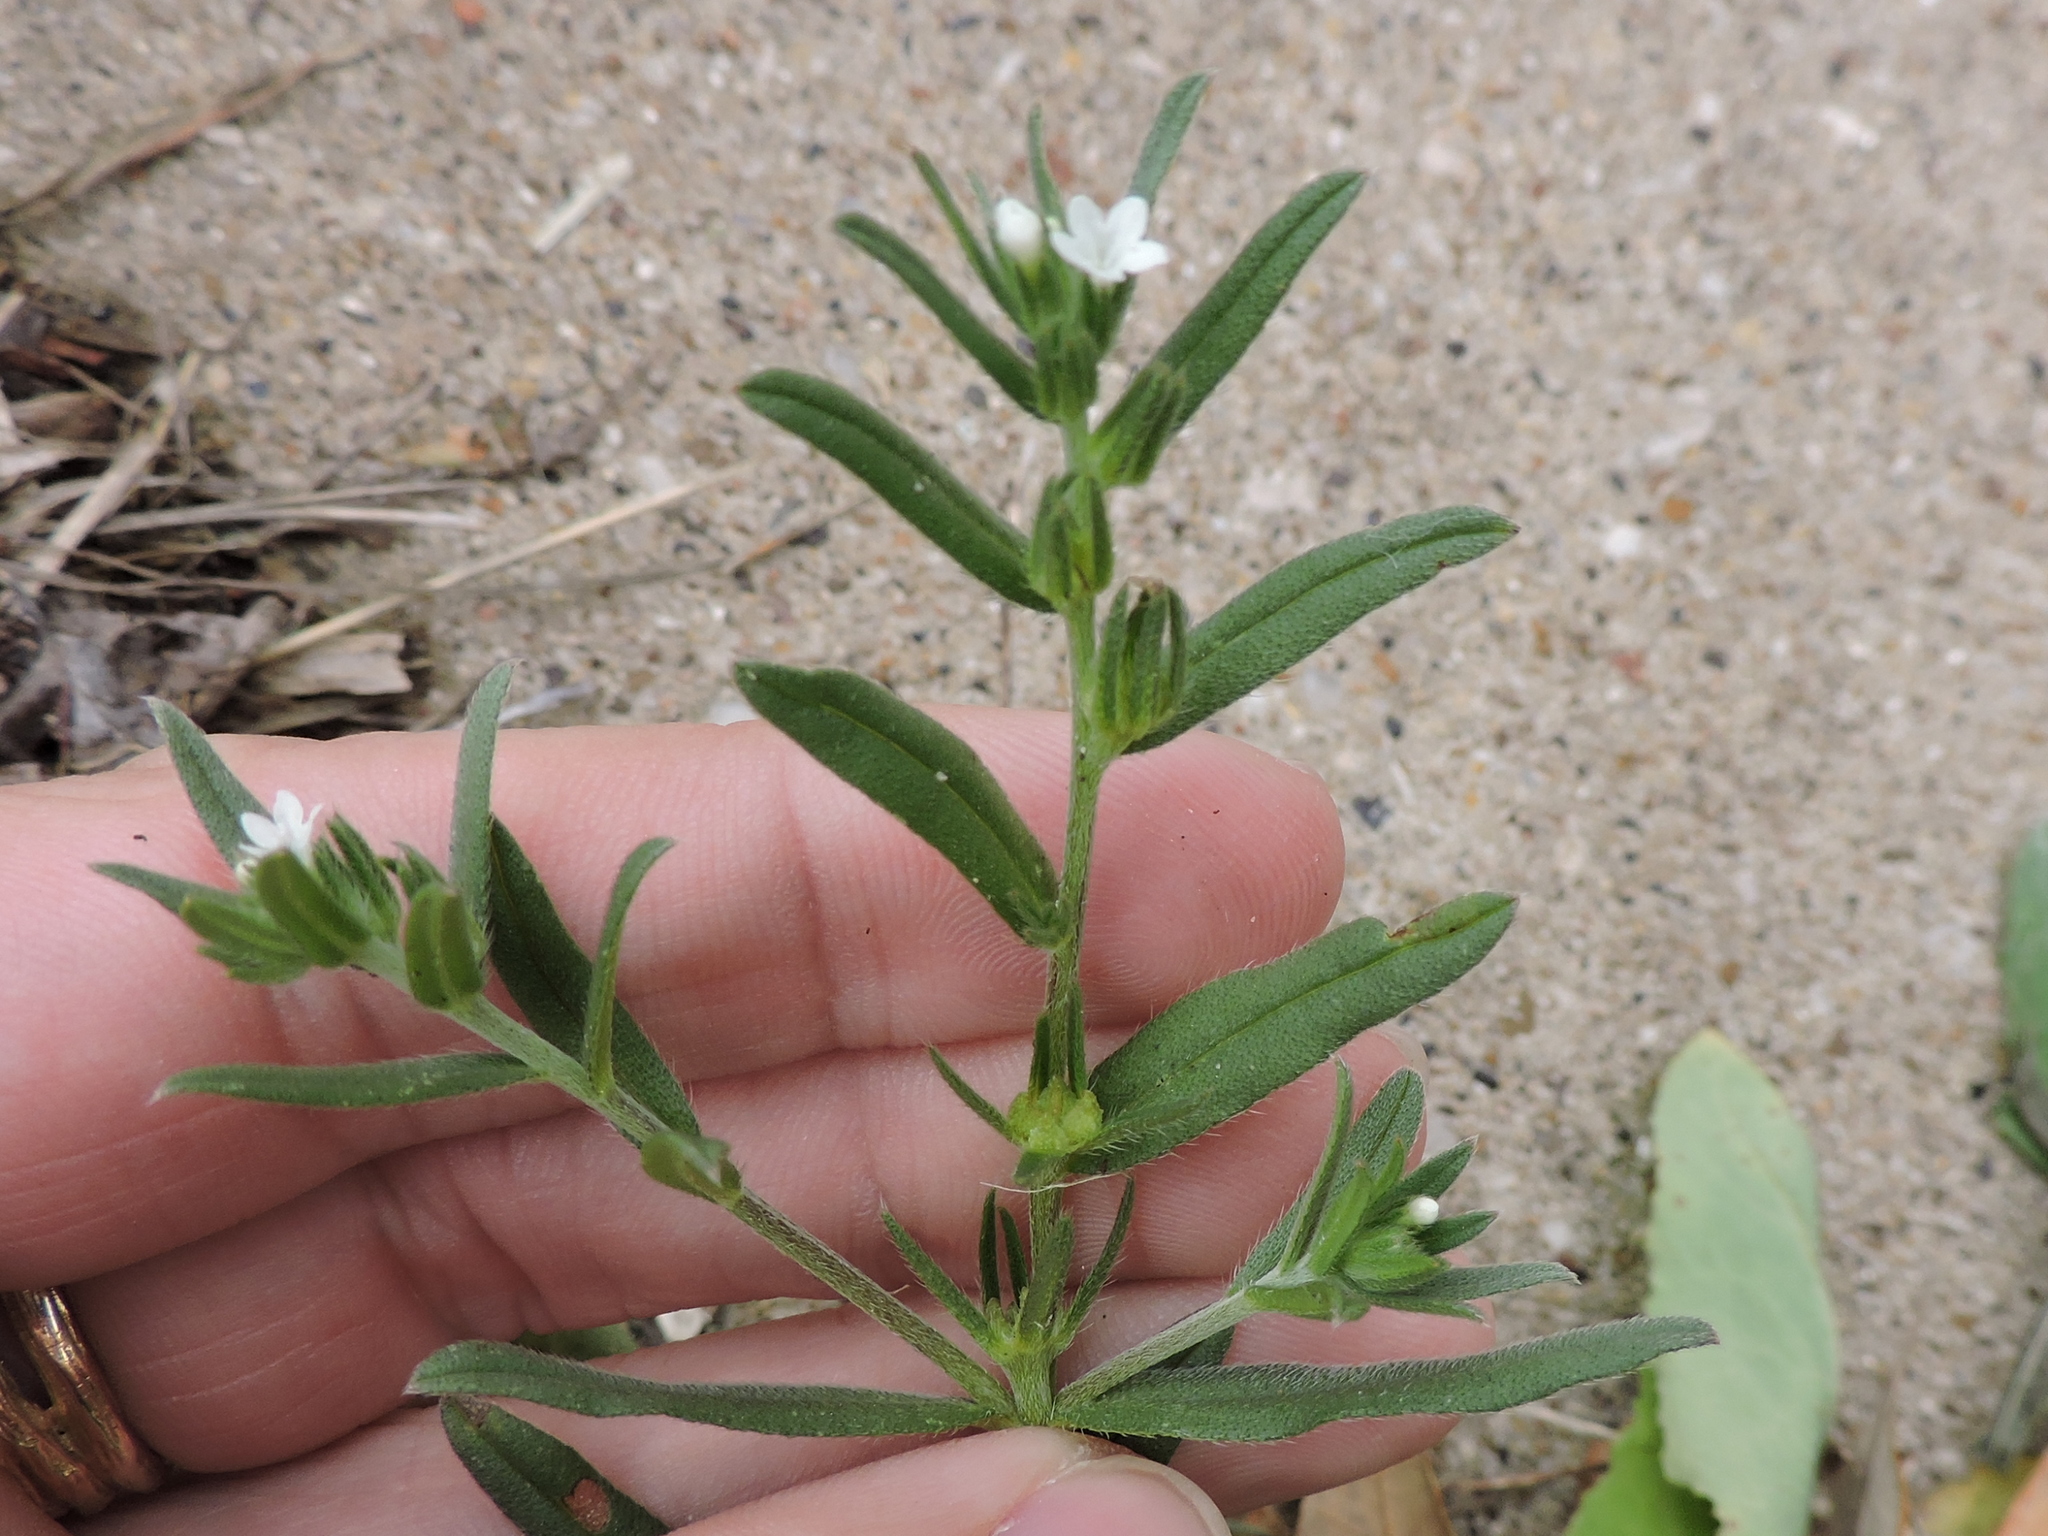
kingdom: Plantae
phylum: Tracheophyta
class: Magnoliopsida
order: Boraginales
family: Boraginaceae
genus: Buglossoides
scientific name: Buglossoides arvensis
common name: Corn gromwell
